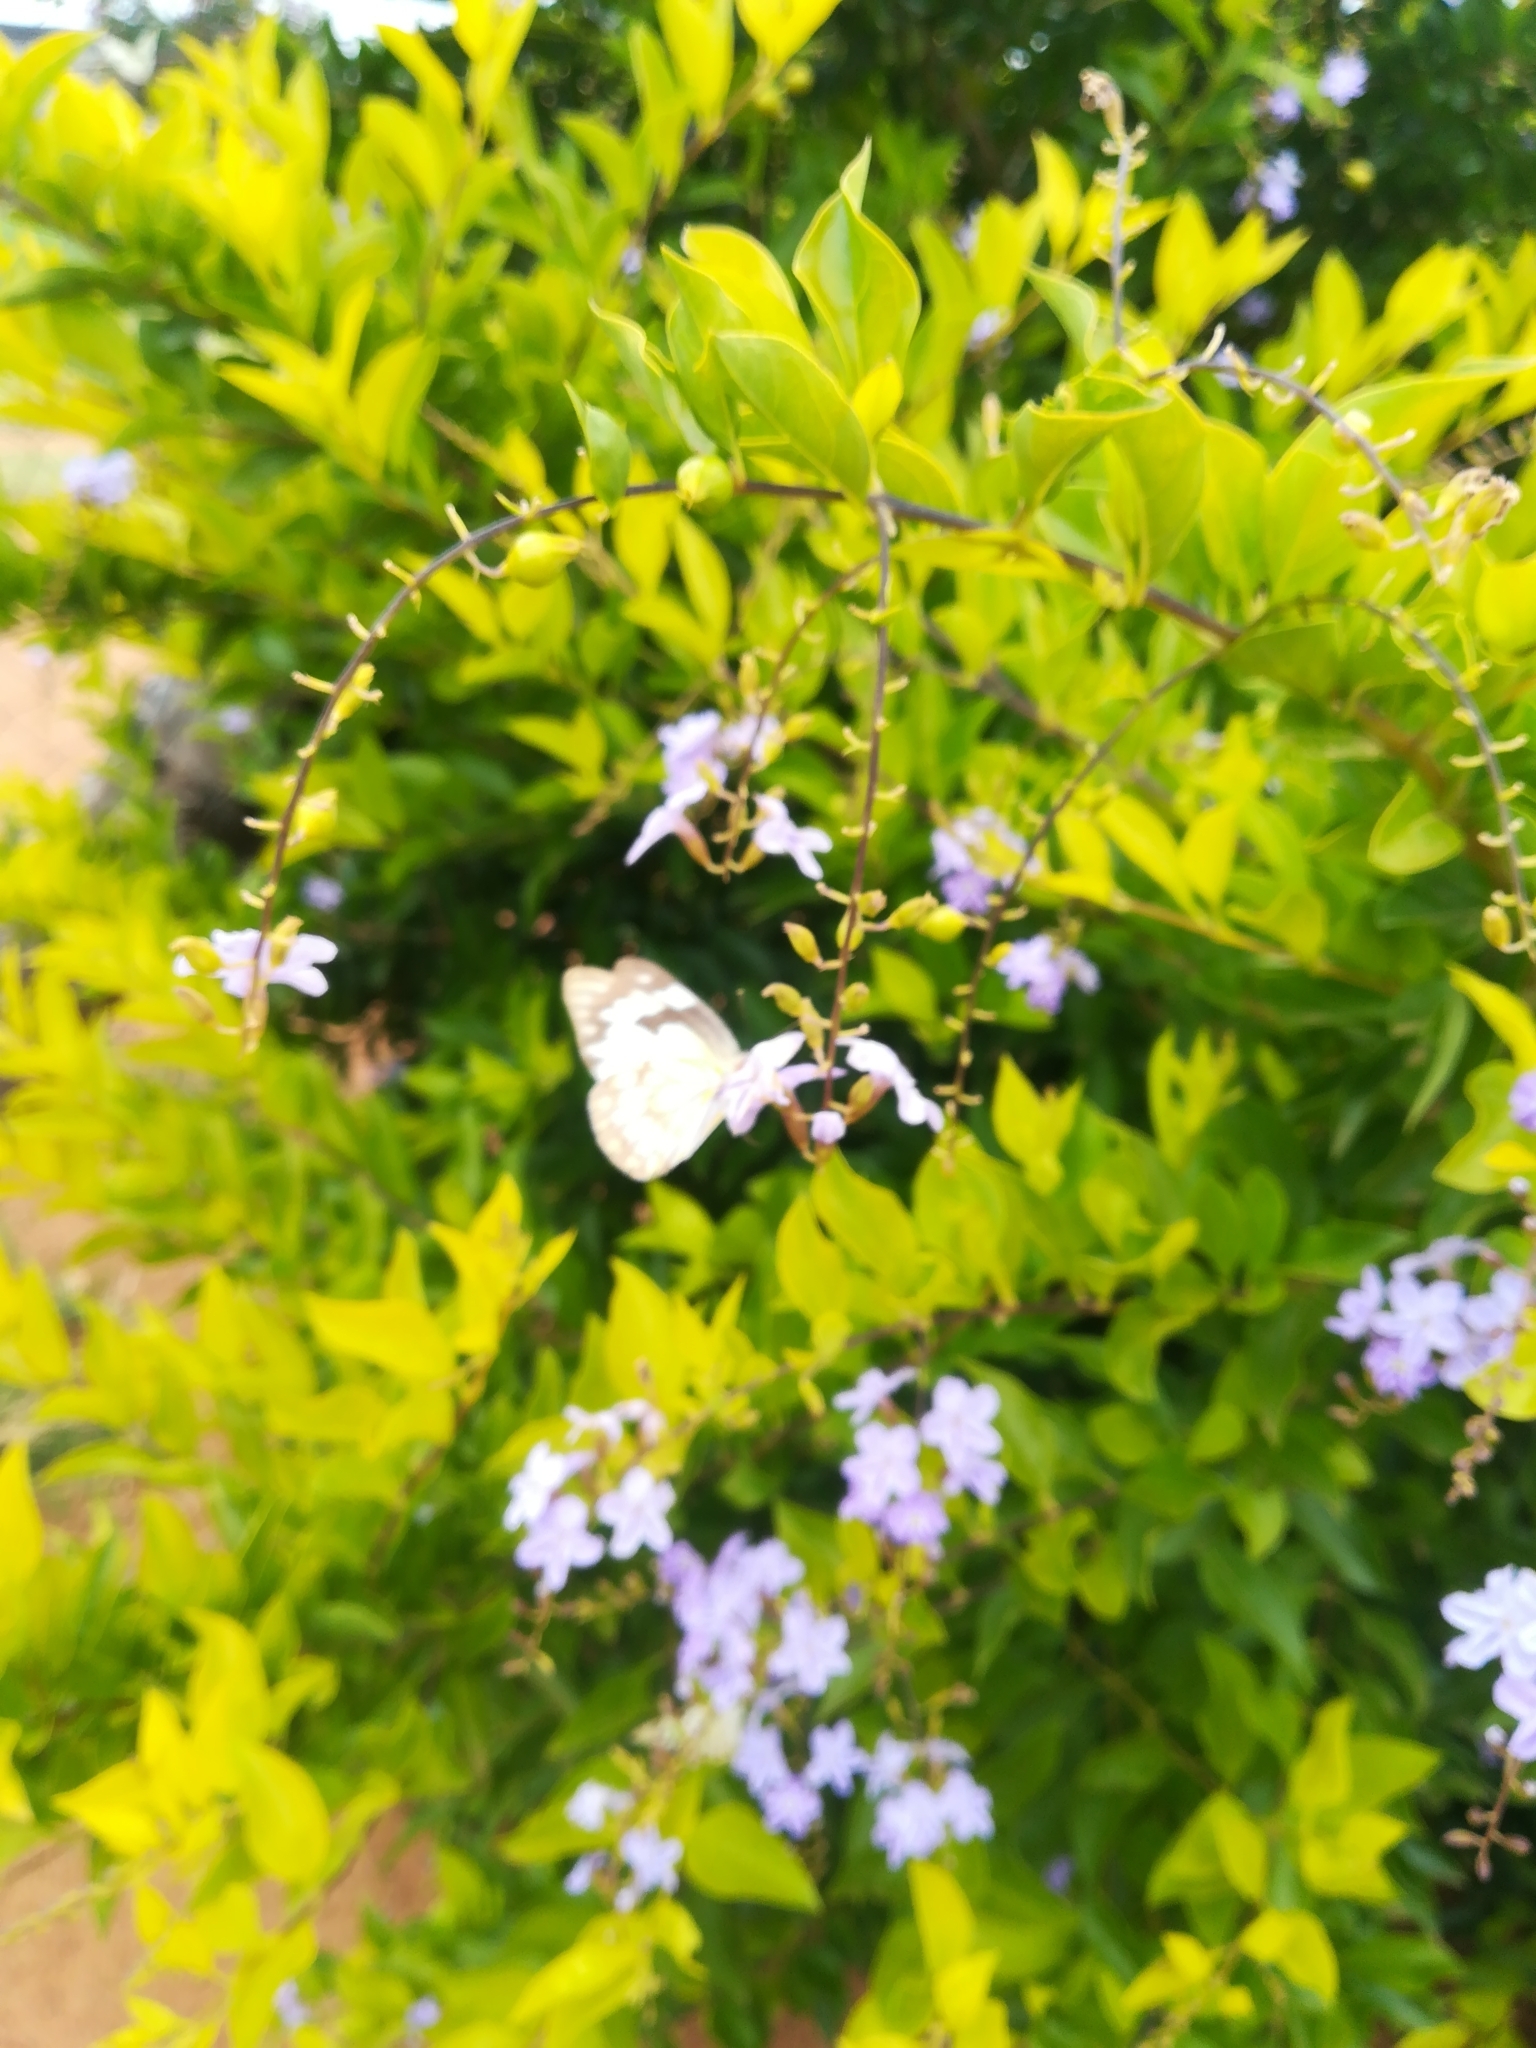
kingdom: Animalia
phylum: Arthropoda
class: Insecta
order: Lepidoptera
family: Pieridae
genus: Belenois
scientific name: Belenois aurota
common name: Brown-veined white
